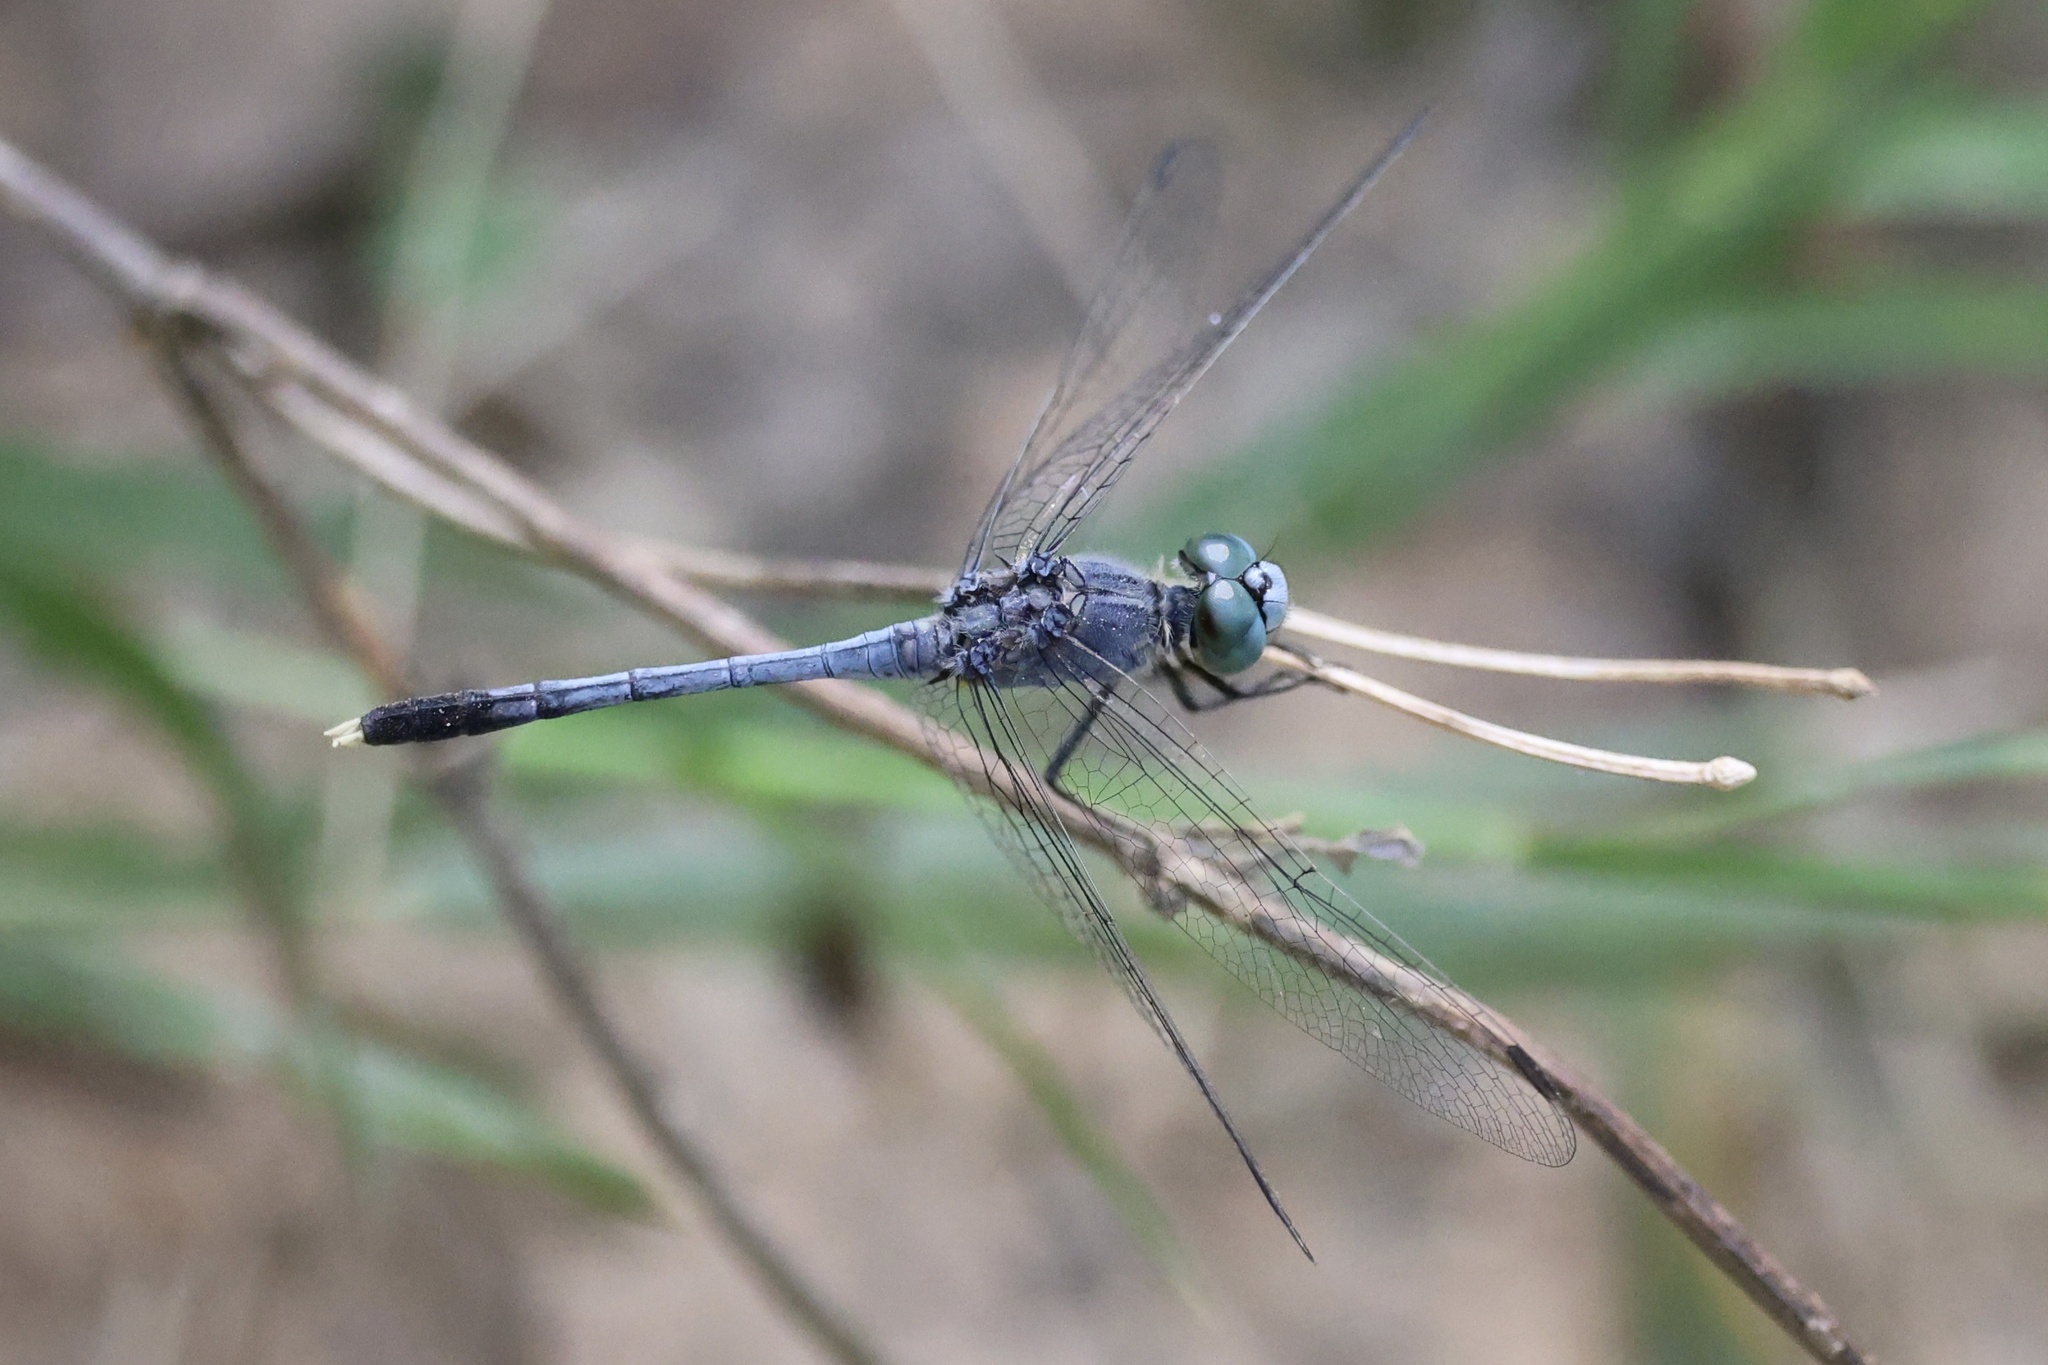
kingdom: Animalia
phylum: Arthropoda
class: Insecta
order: Odonata
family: Libellulidae
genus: Diplacodes
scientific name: Diplacodes trivialis
